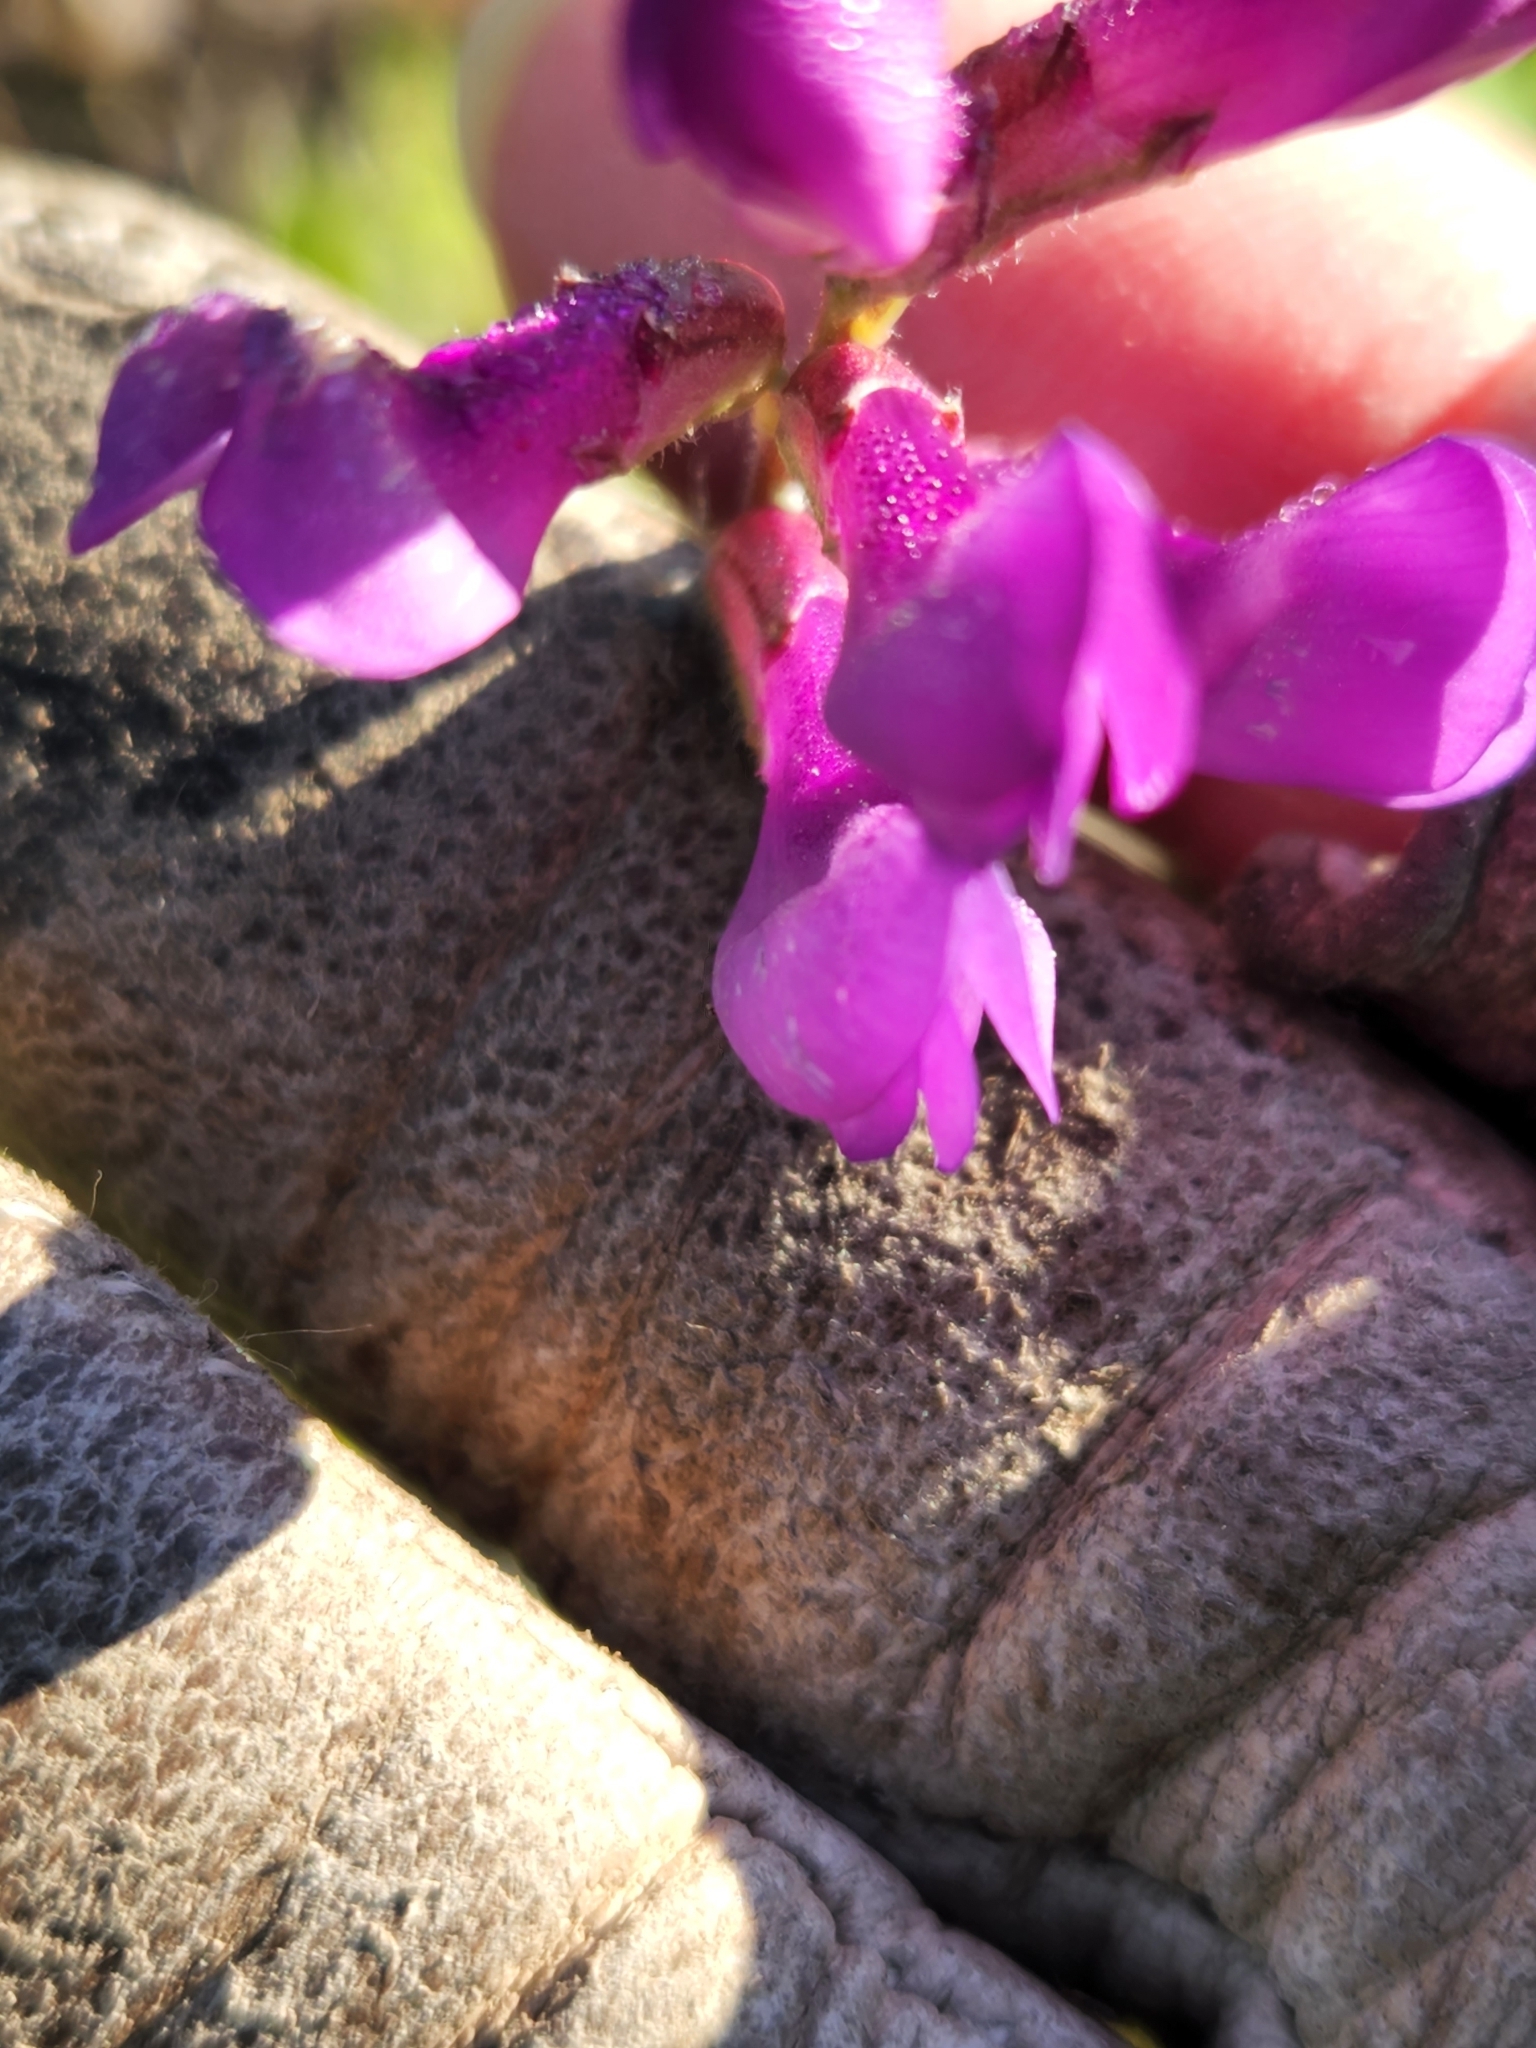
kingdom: Plantae
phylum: Tracheophyta
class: Magnoliopsida
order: Fabales
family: Fabaceae
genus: Vicia
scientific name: Vicia americana
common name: American vetch
